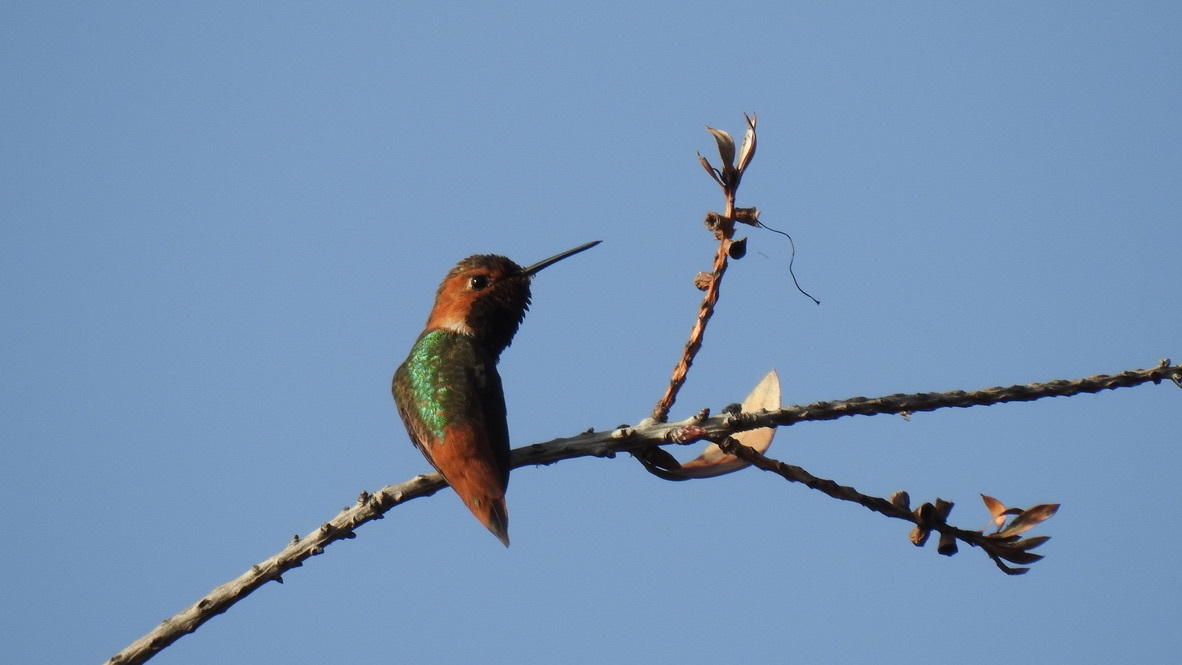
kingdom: Animalia
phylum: Chordata
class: Aves
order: Apodiformes
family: Trochilidae
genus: Selasphorus
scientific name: Selasphorus sasin
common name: Allen's hummingbird
